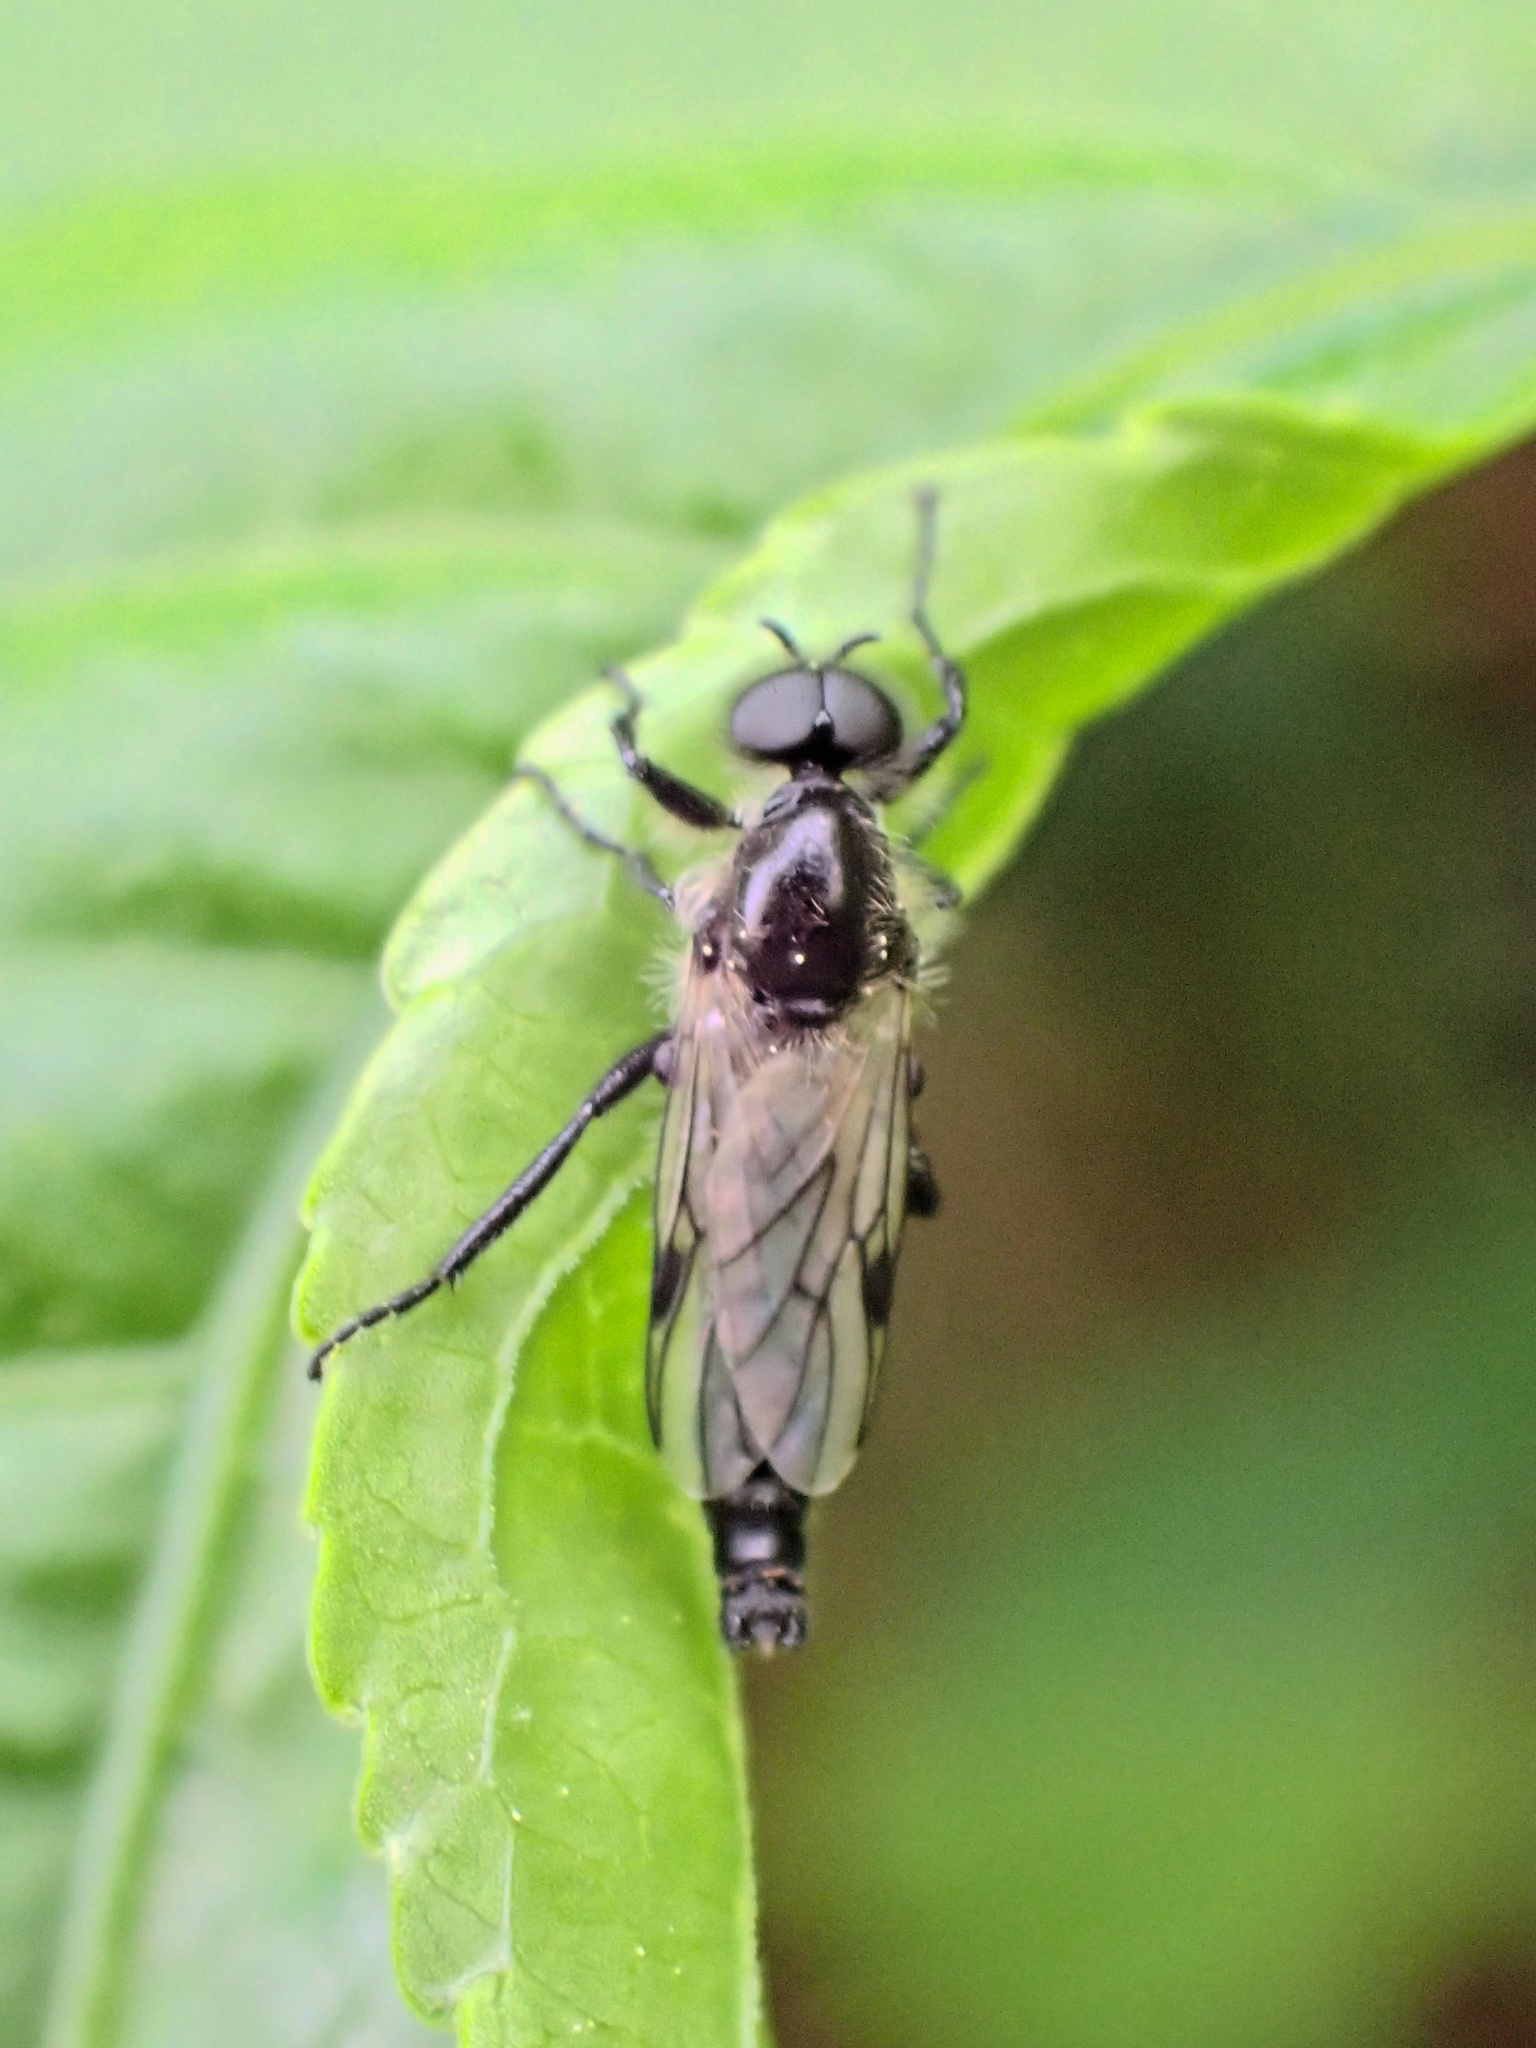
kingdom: Animalia
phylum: Arthropoda
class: Insecta
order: Diptera
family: Bibionidae
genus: Bibio
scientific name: Bibio albipennis
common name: White-winged march fly
